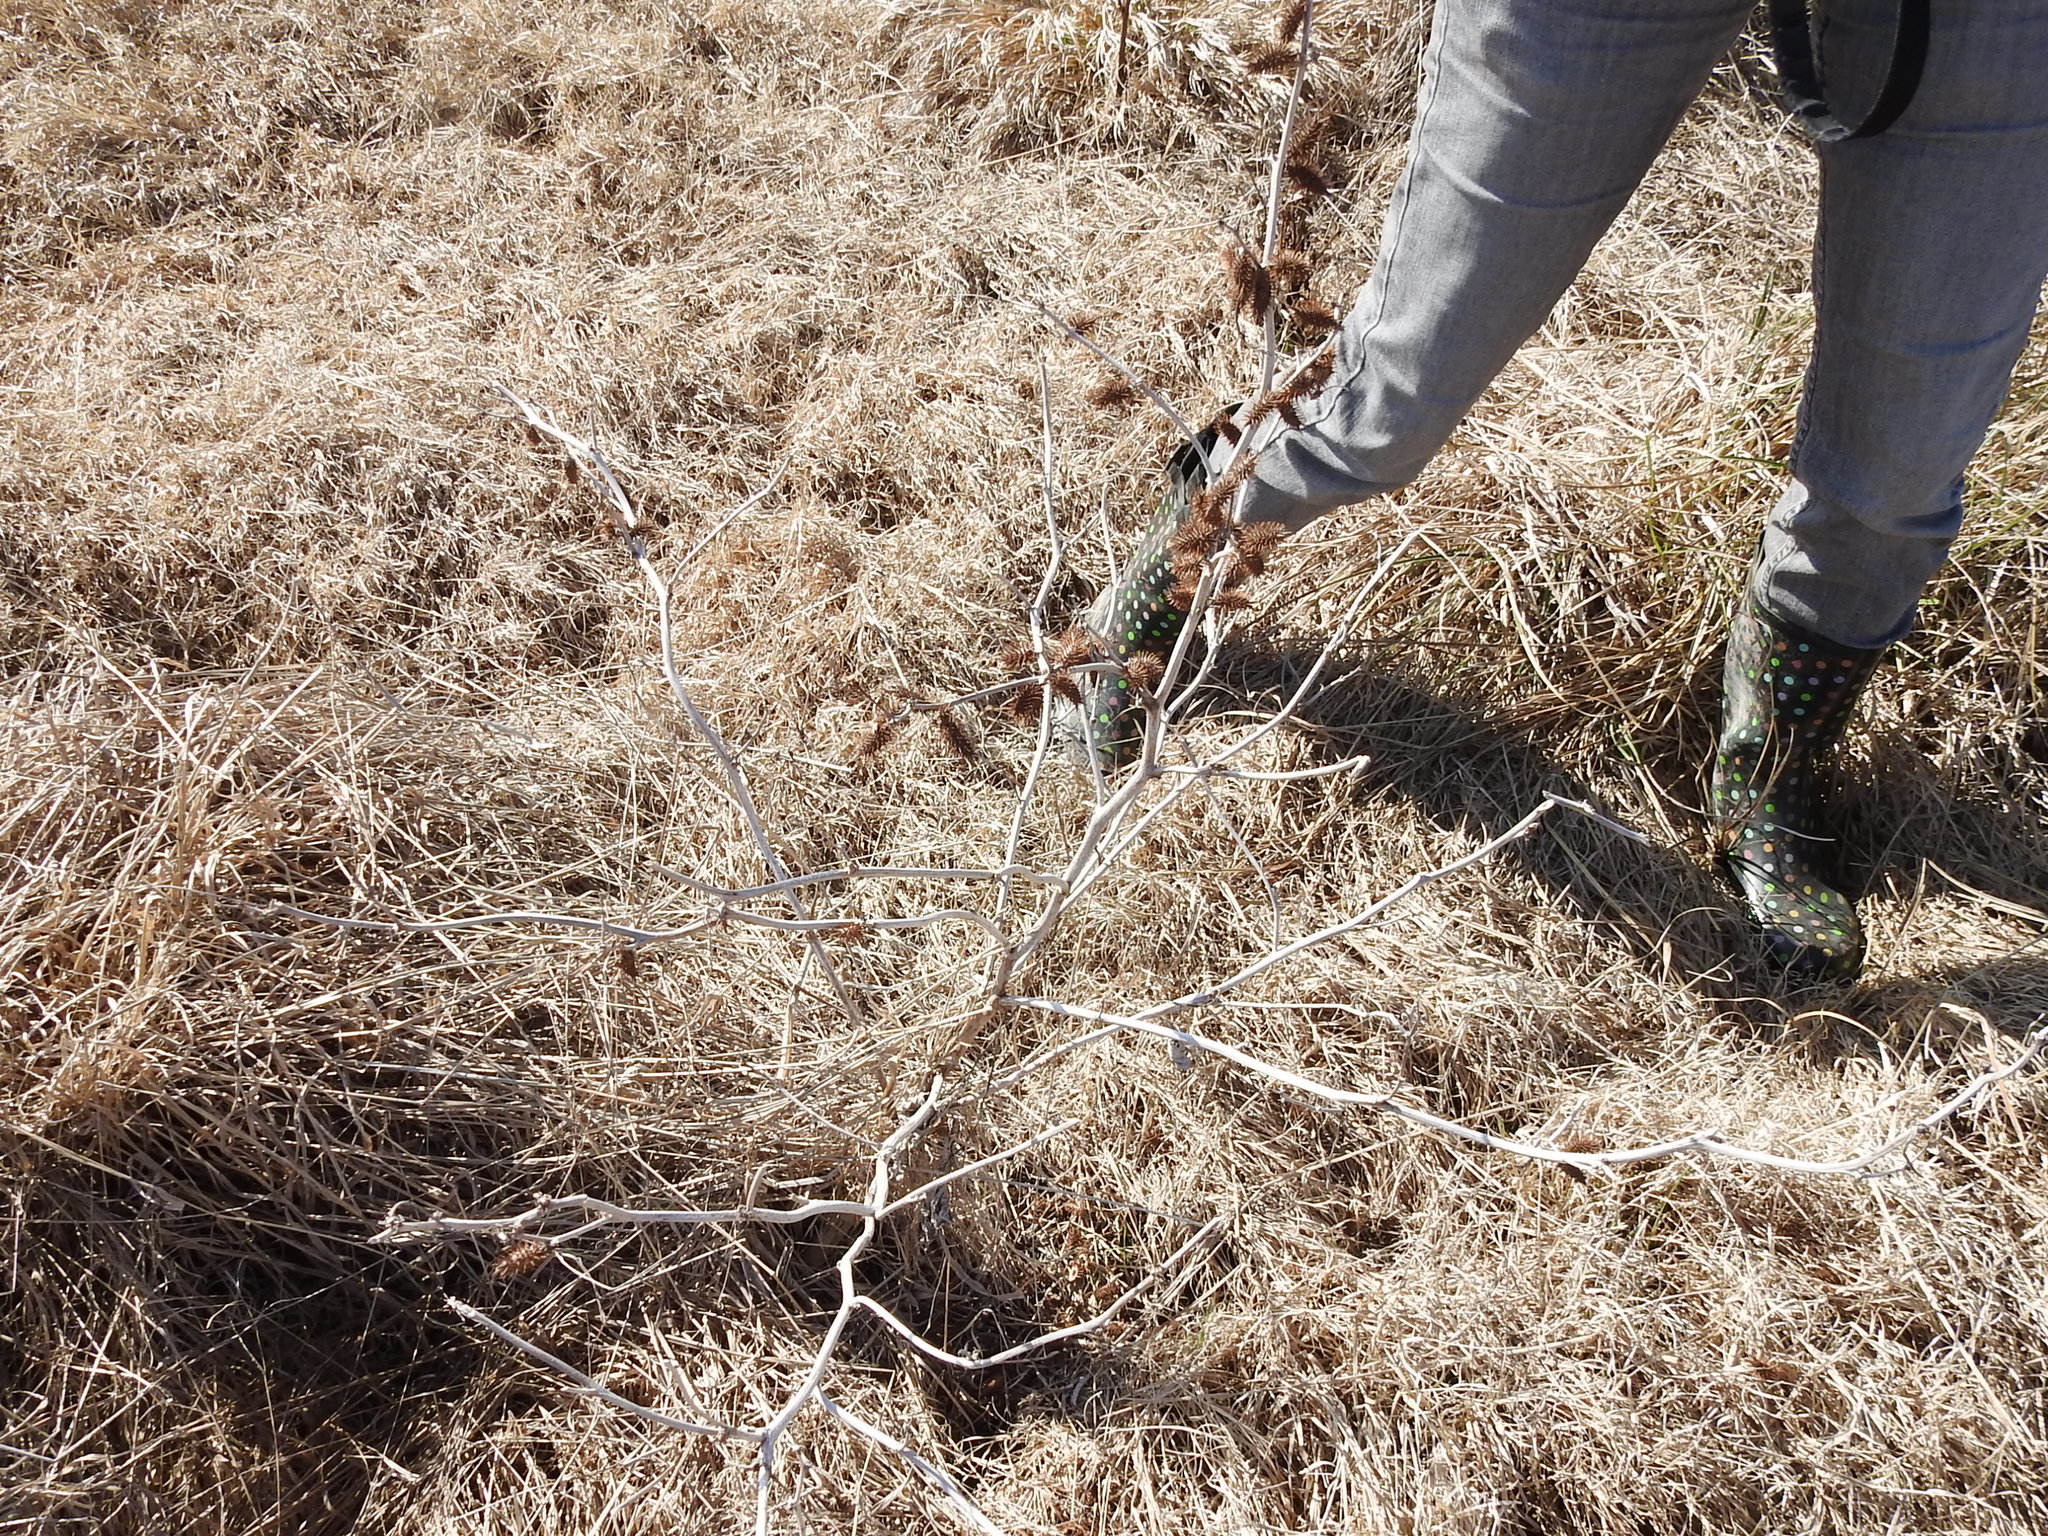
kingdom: Plantae
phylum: Tracheophyta
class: Magnoliopsida
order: Asterales
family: Asteraceae
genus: Xanthium
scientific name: Xanthium strumarium
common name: Rough cocklebur
